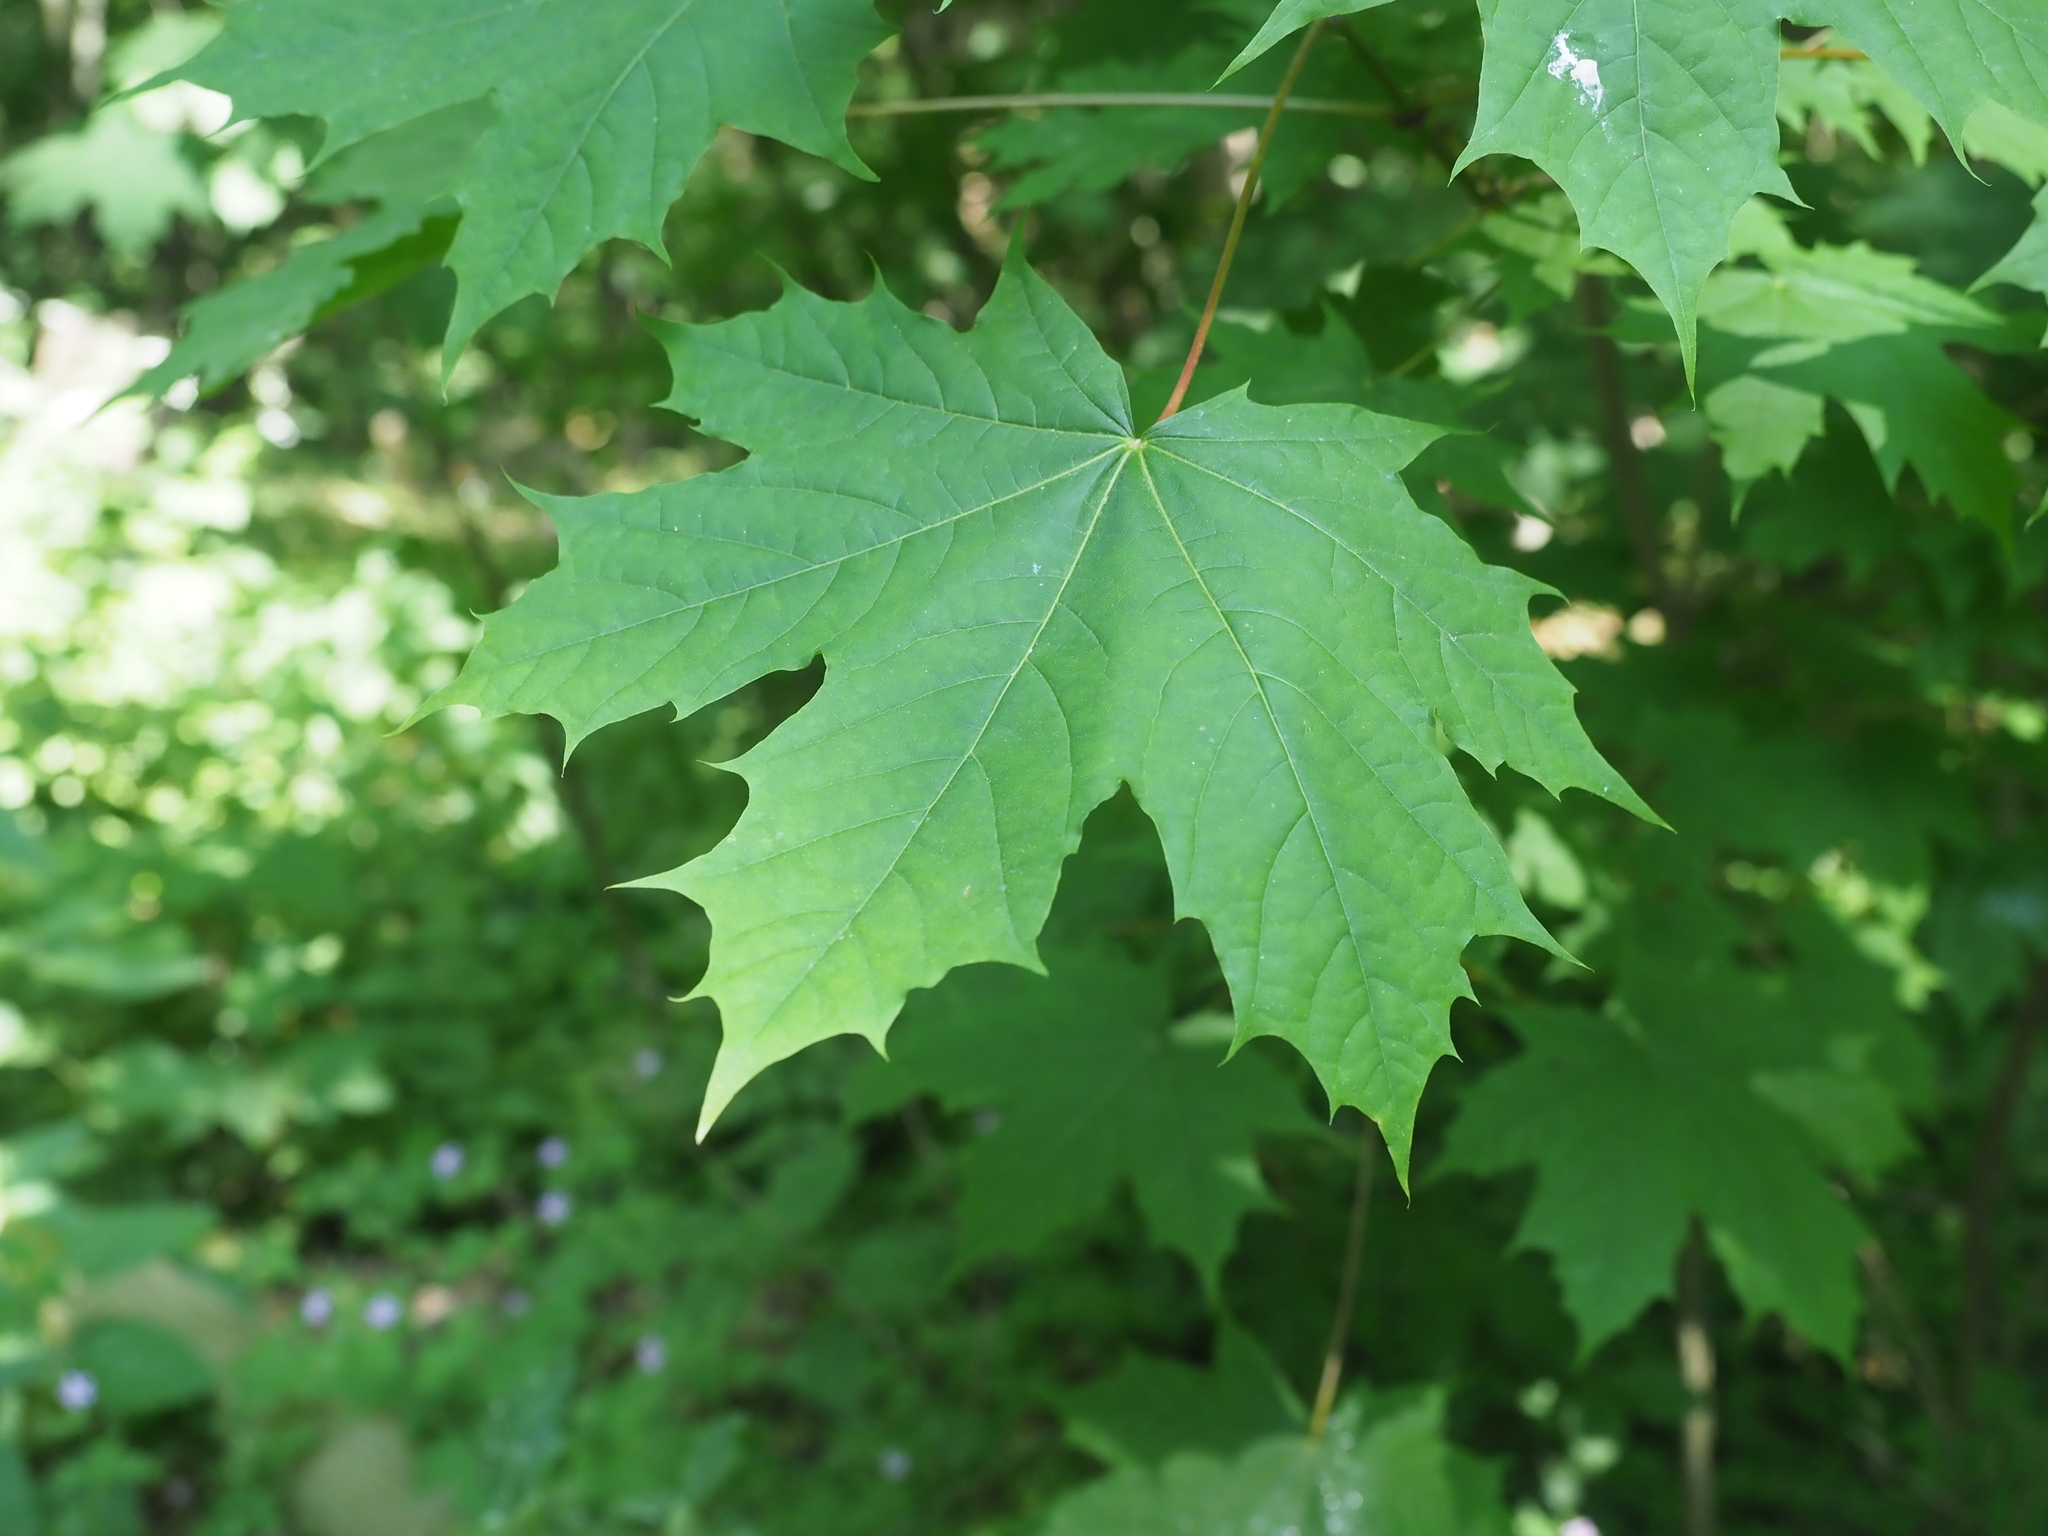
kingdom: Plantae
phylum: Tracheophyta
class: Magnoliopsida
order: Sapindales
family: Sapindaceae
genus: Acer
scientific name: Acer platanoides
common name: Norway maple
